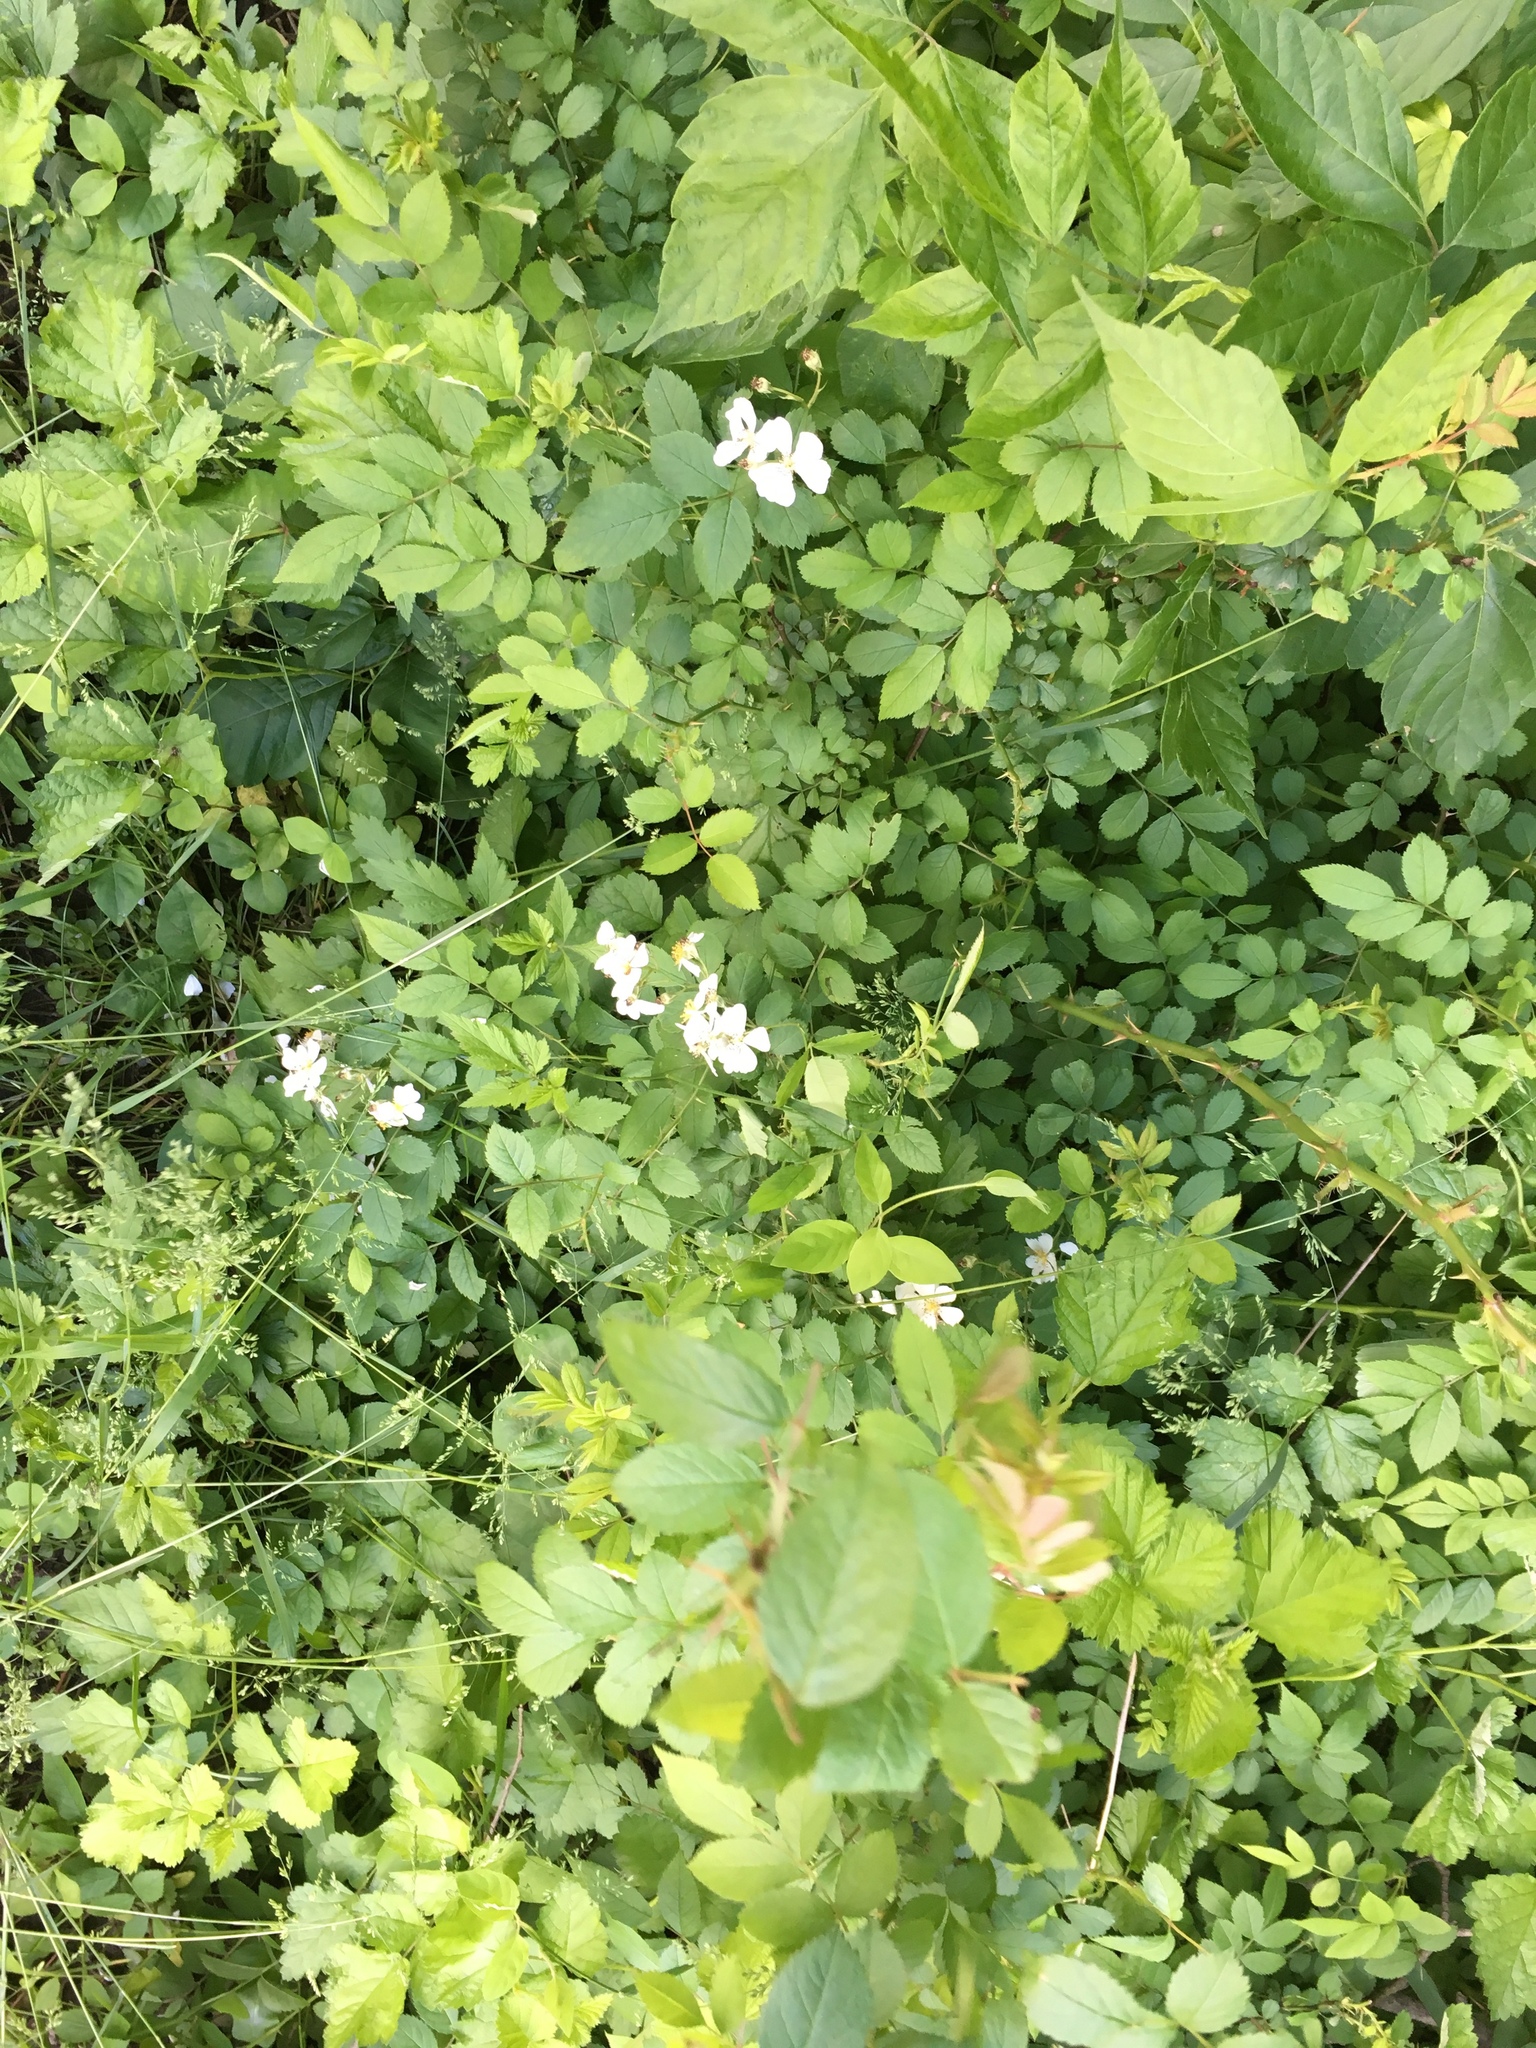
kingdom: Plantae
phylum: Tracheophyta
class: Magnoliopsida
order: Rosales
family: Rosaceae
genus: Rosa
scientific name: Rosa multiflora
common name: Multiflora rose
